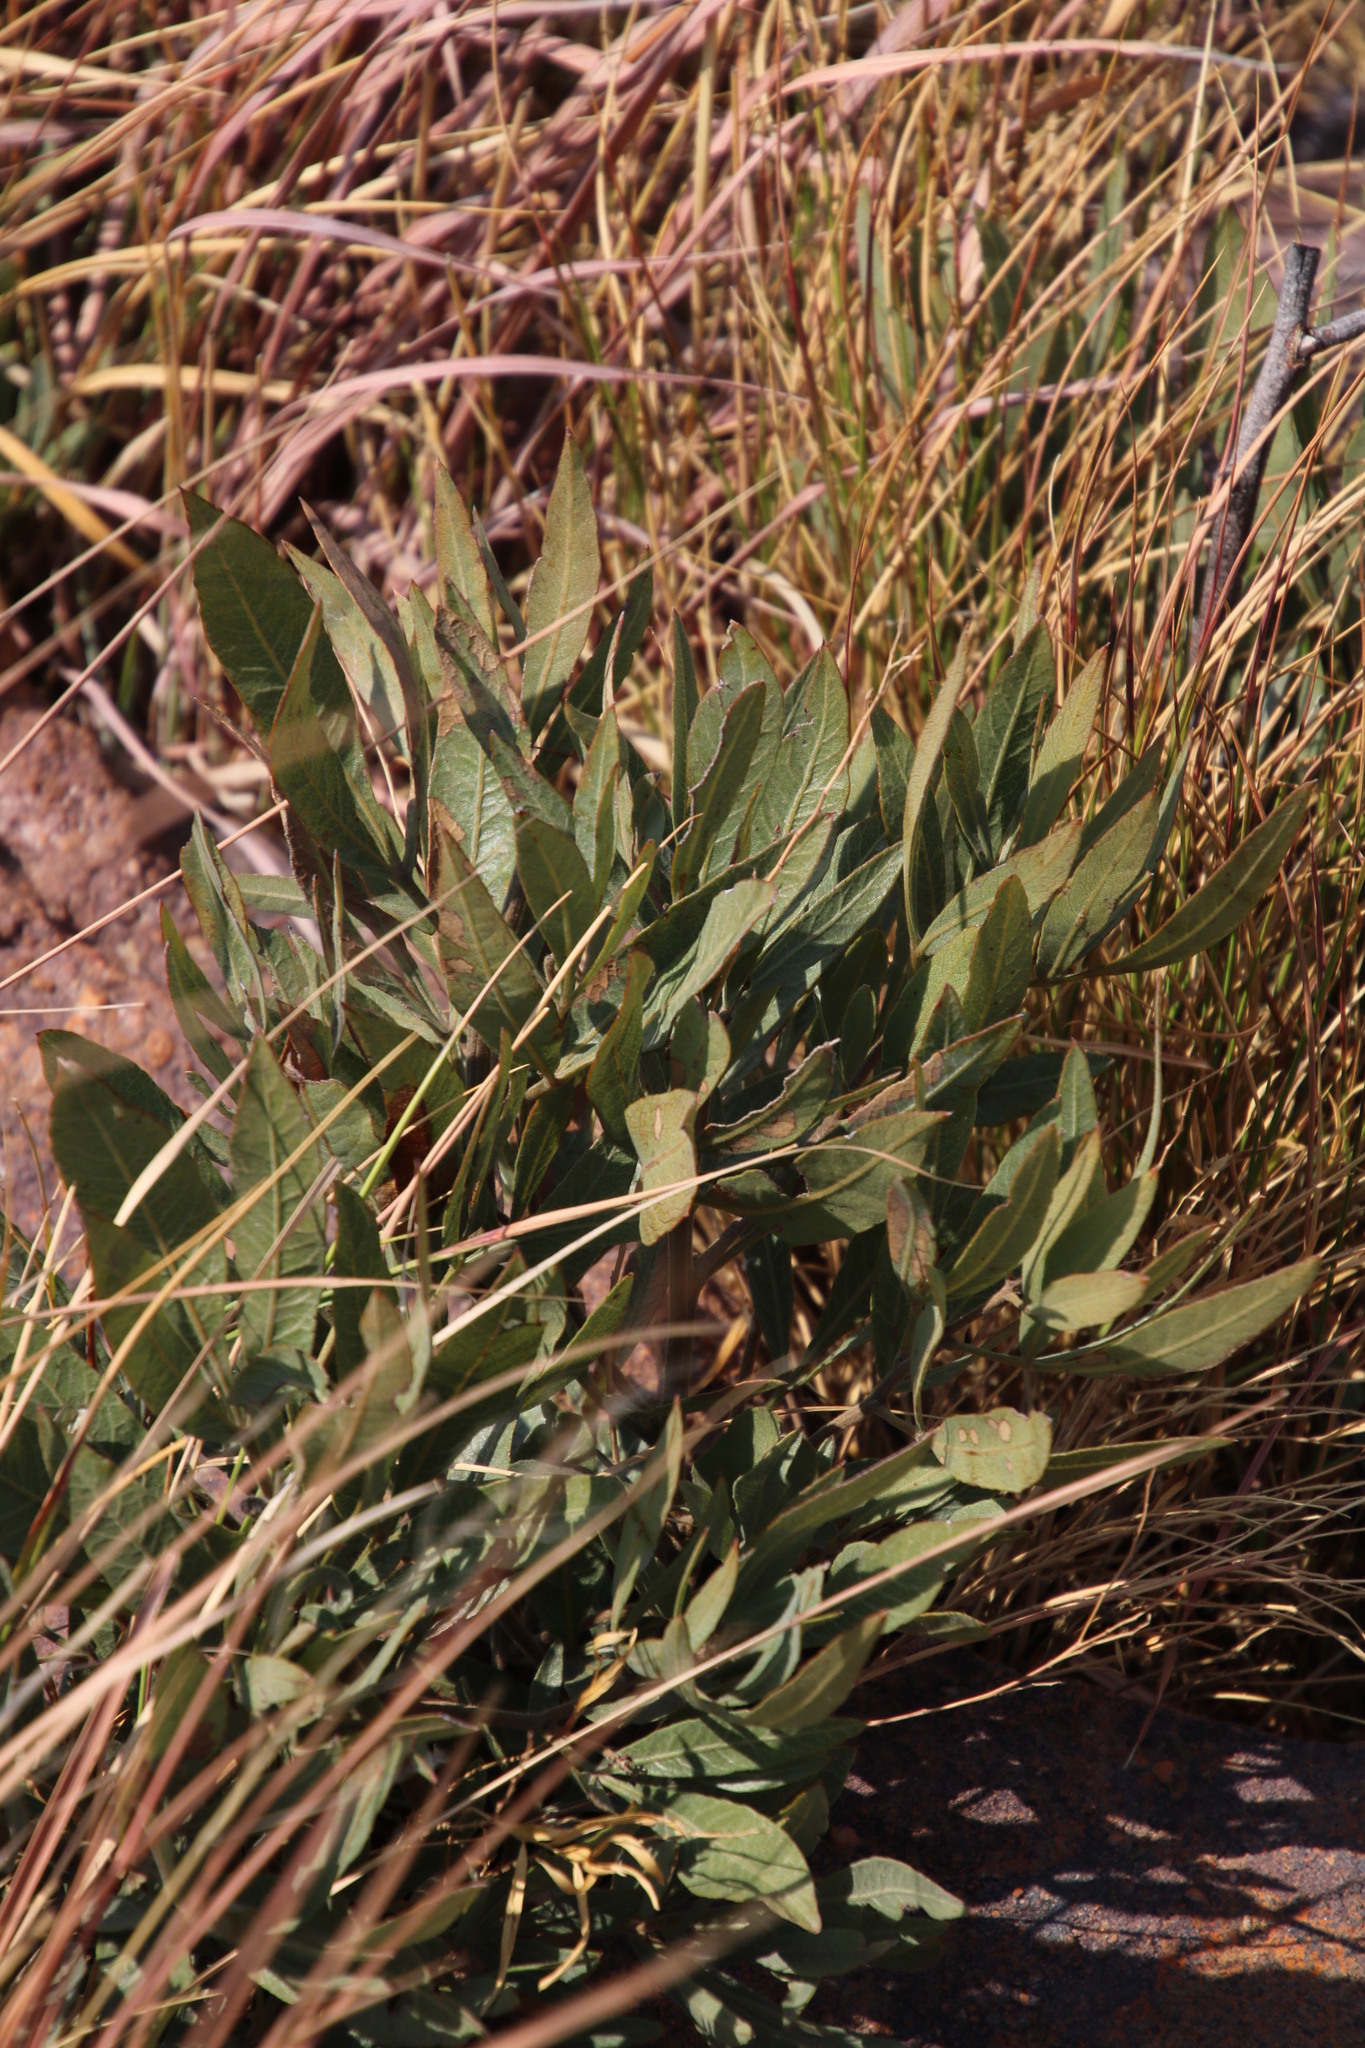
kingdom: Plantae
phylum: Tracheophyta
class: Magnoliopsida
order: Sapindales
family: Anacardiaceae
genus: Searsia
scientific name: Searsia magalismontana
